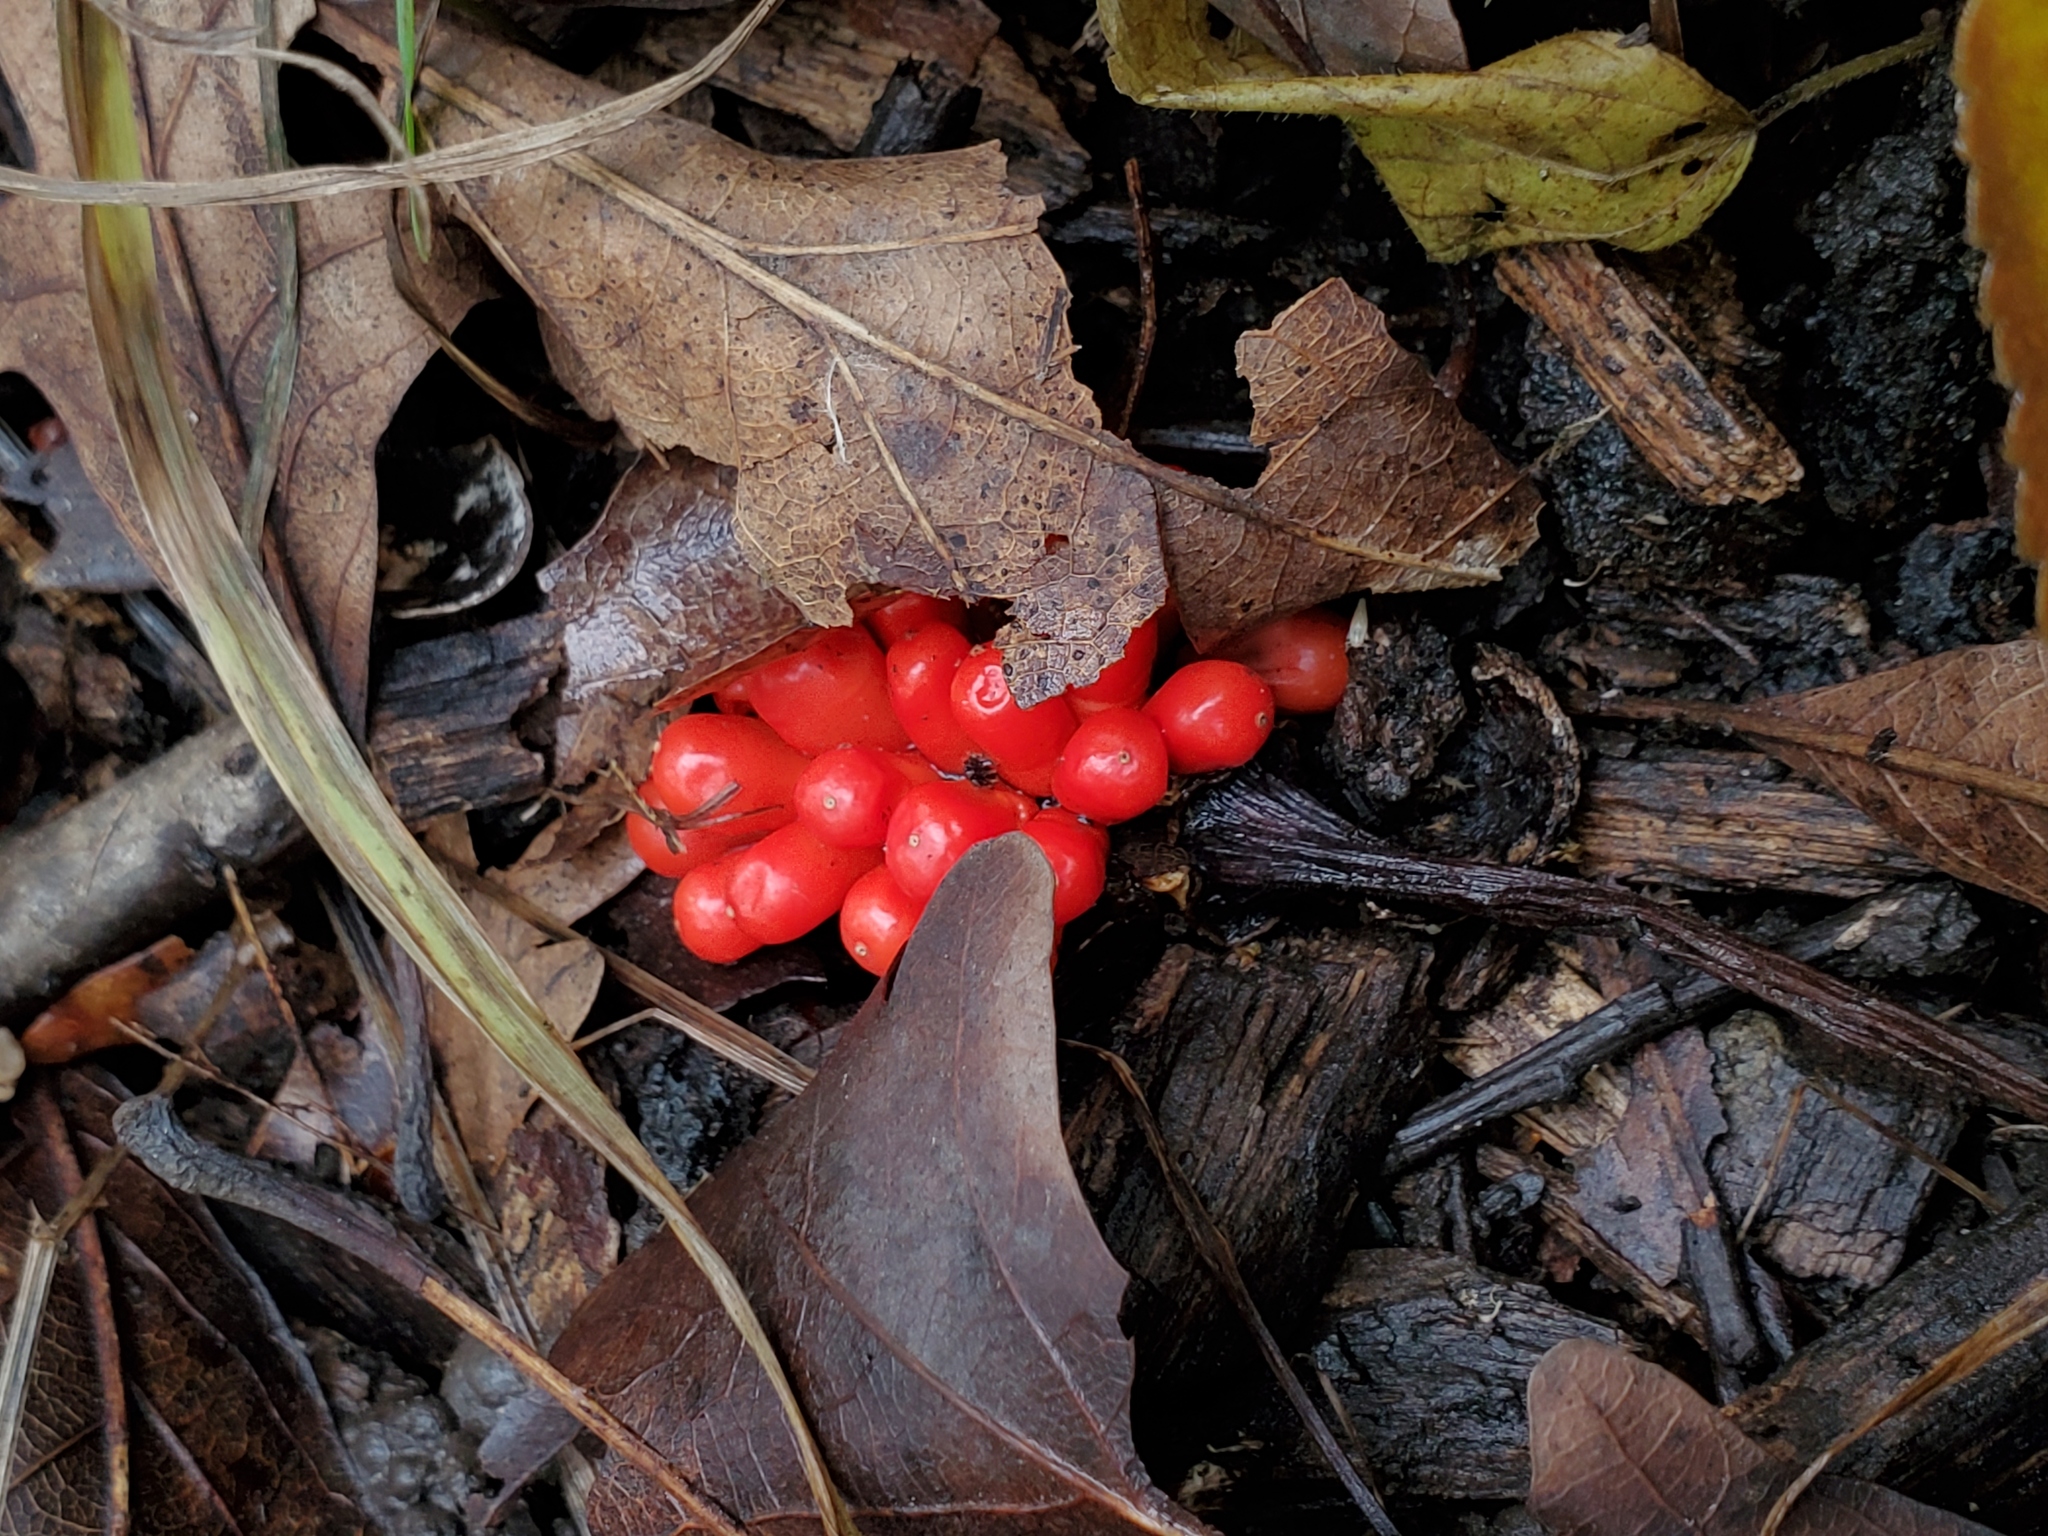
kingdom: Plantae
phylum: Tracheophyta
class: Liliopsida
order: Alismatales
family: Araceae
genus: Arisaema
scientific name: Arisaema
